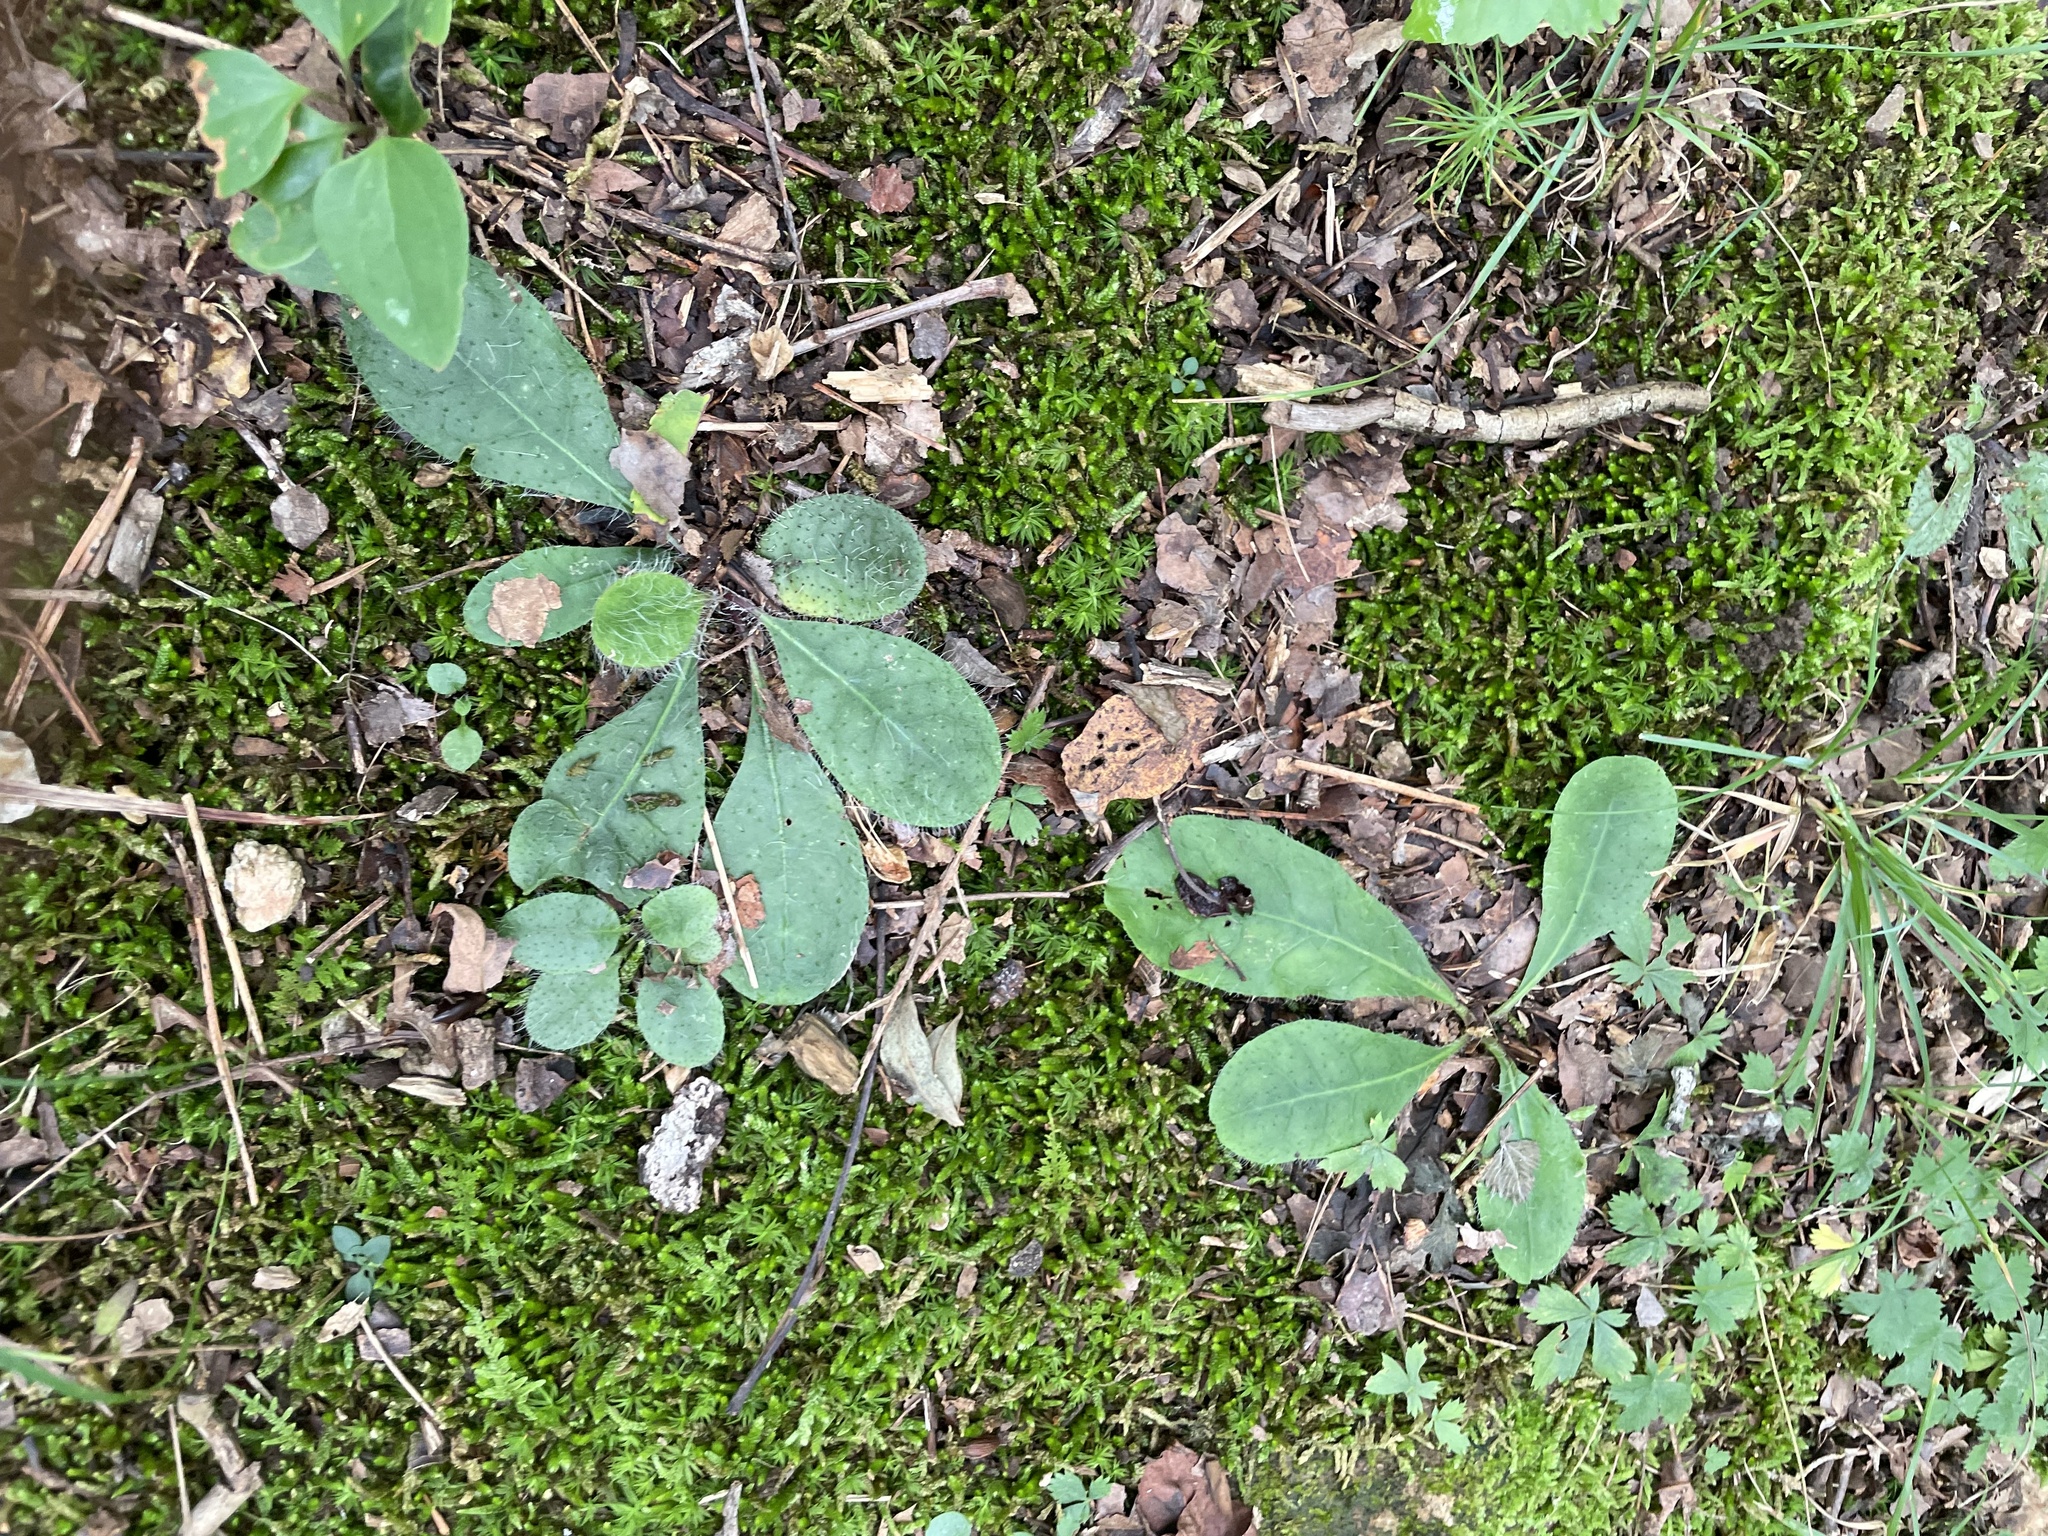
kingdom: Plantae
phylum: Tracheophyta
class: Magnoliopsida
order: Asterales
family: Asteraceae
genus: Hieracium
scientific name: Hieracium venosum
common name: Rattlesnake hawkweed
